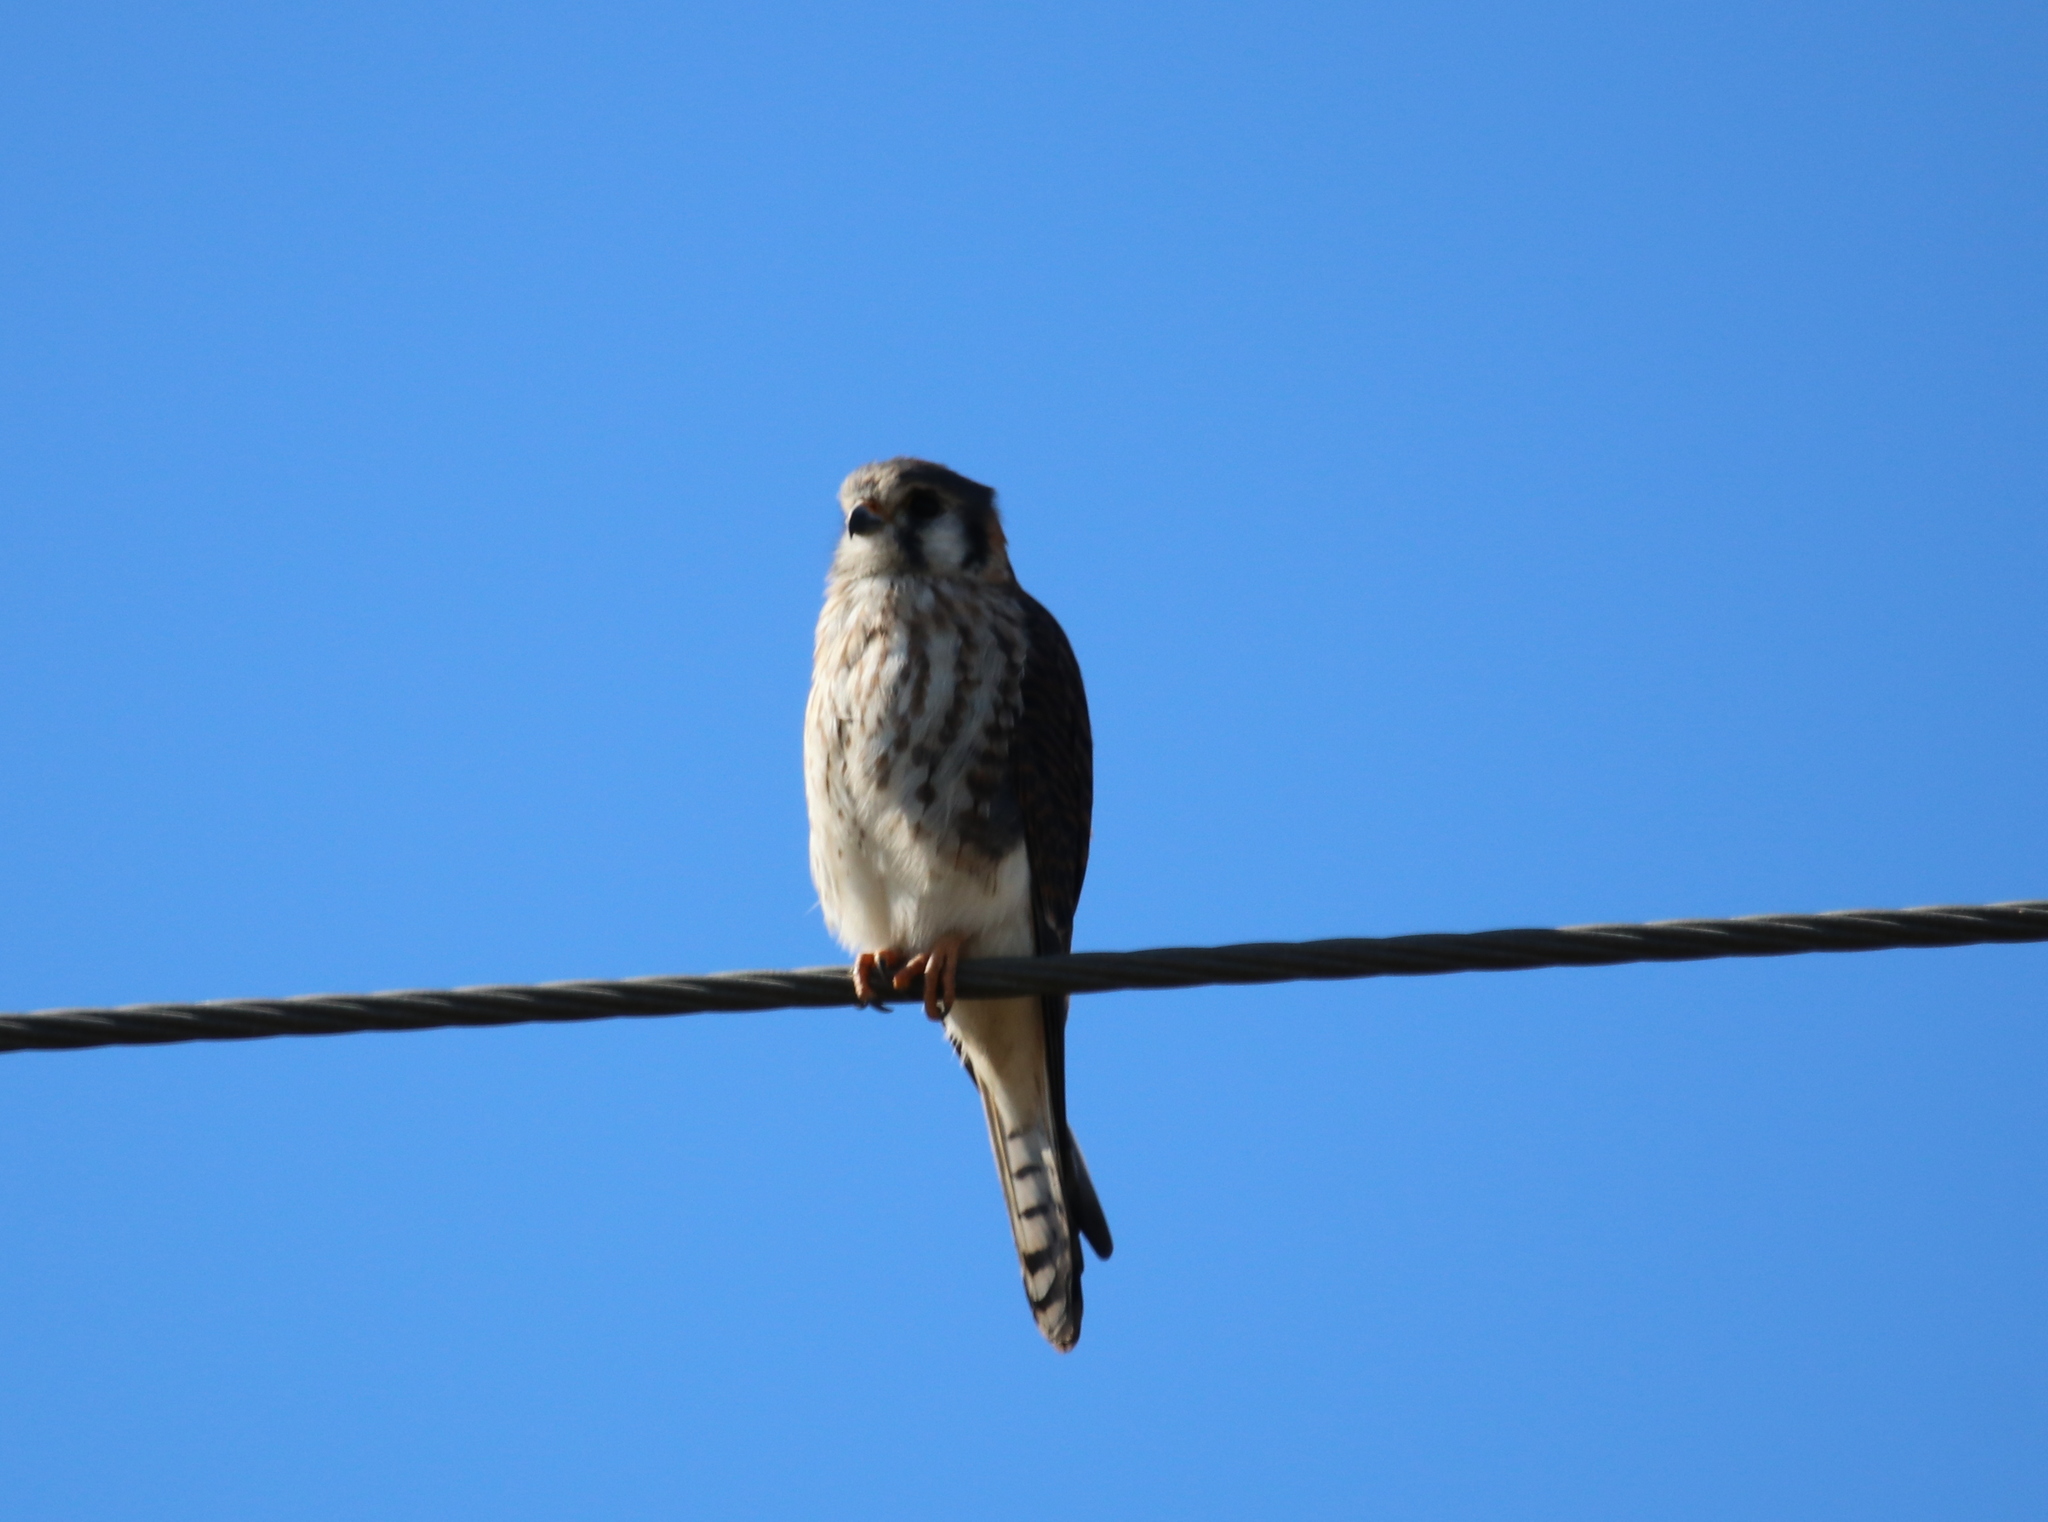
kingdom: Animalia
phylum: Chordata
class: Aves
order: Falconiformes
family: Falconidae
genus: Falco
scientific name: Falco sparverius
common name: American kestrel
